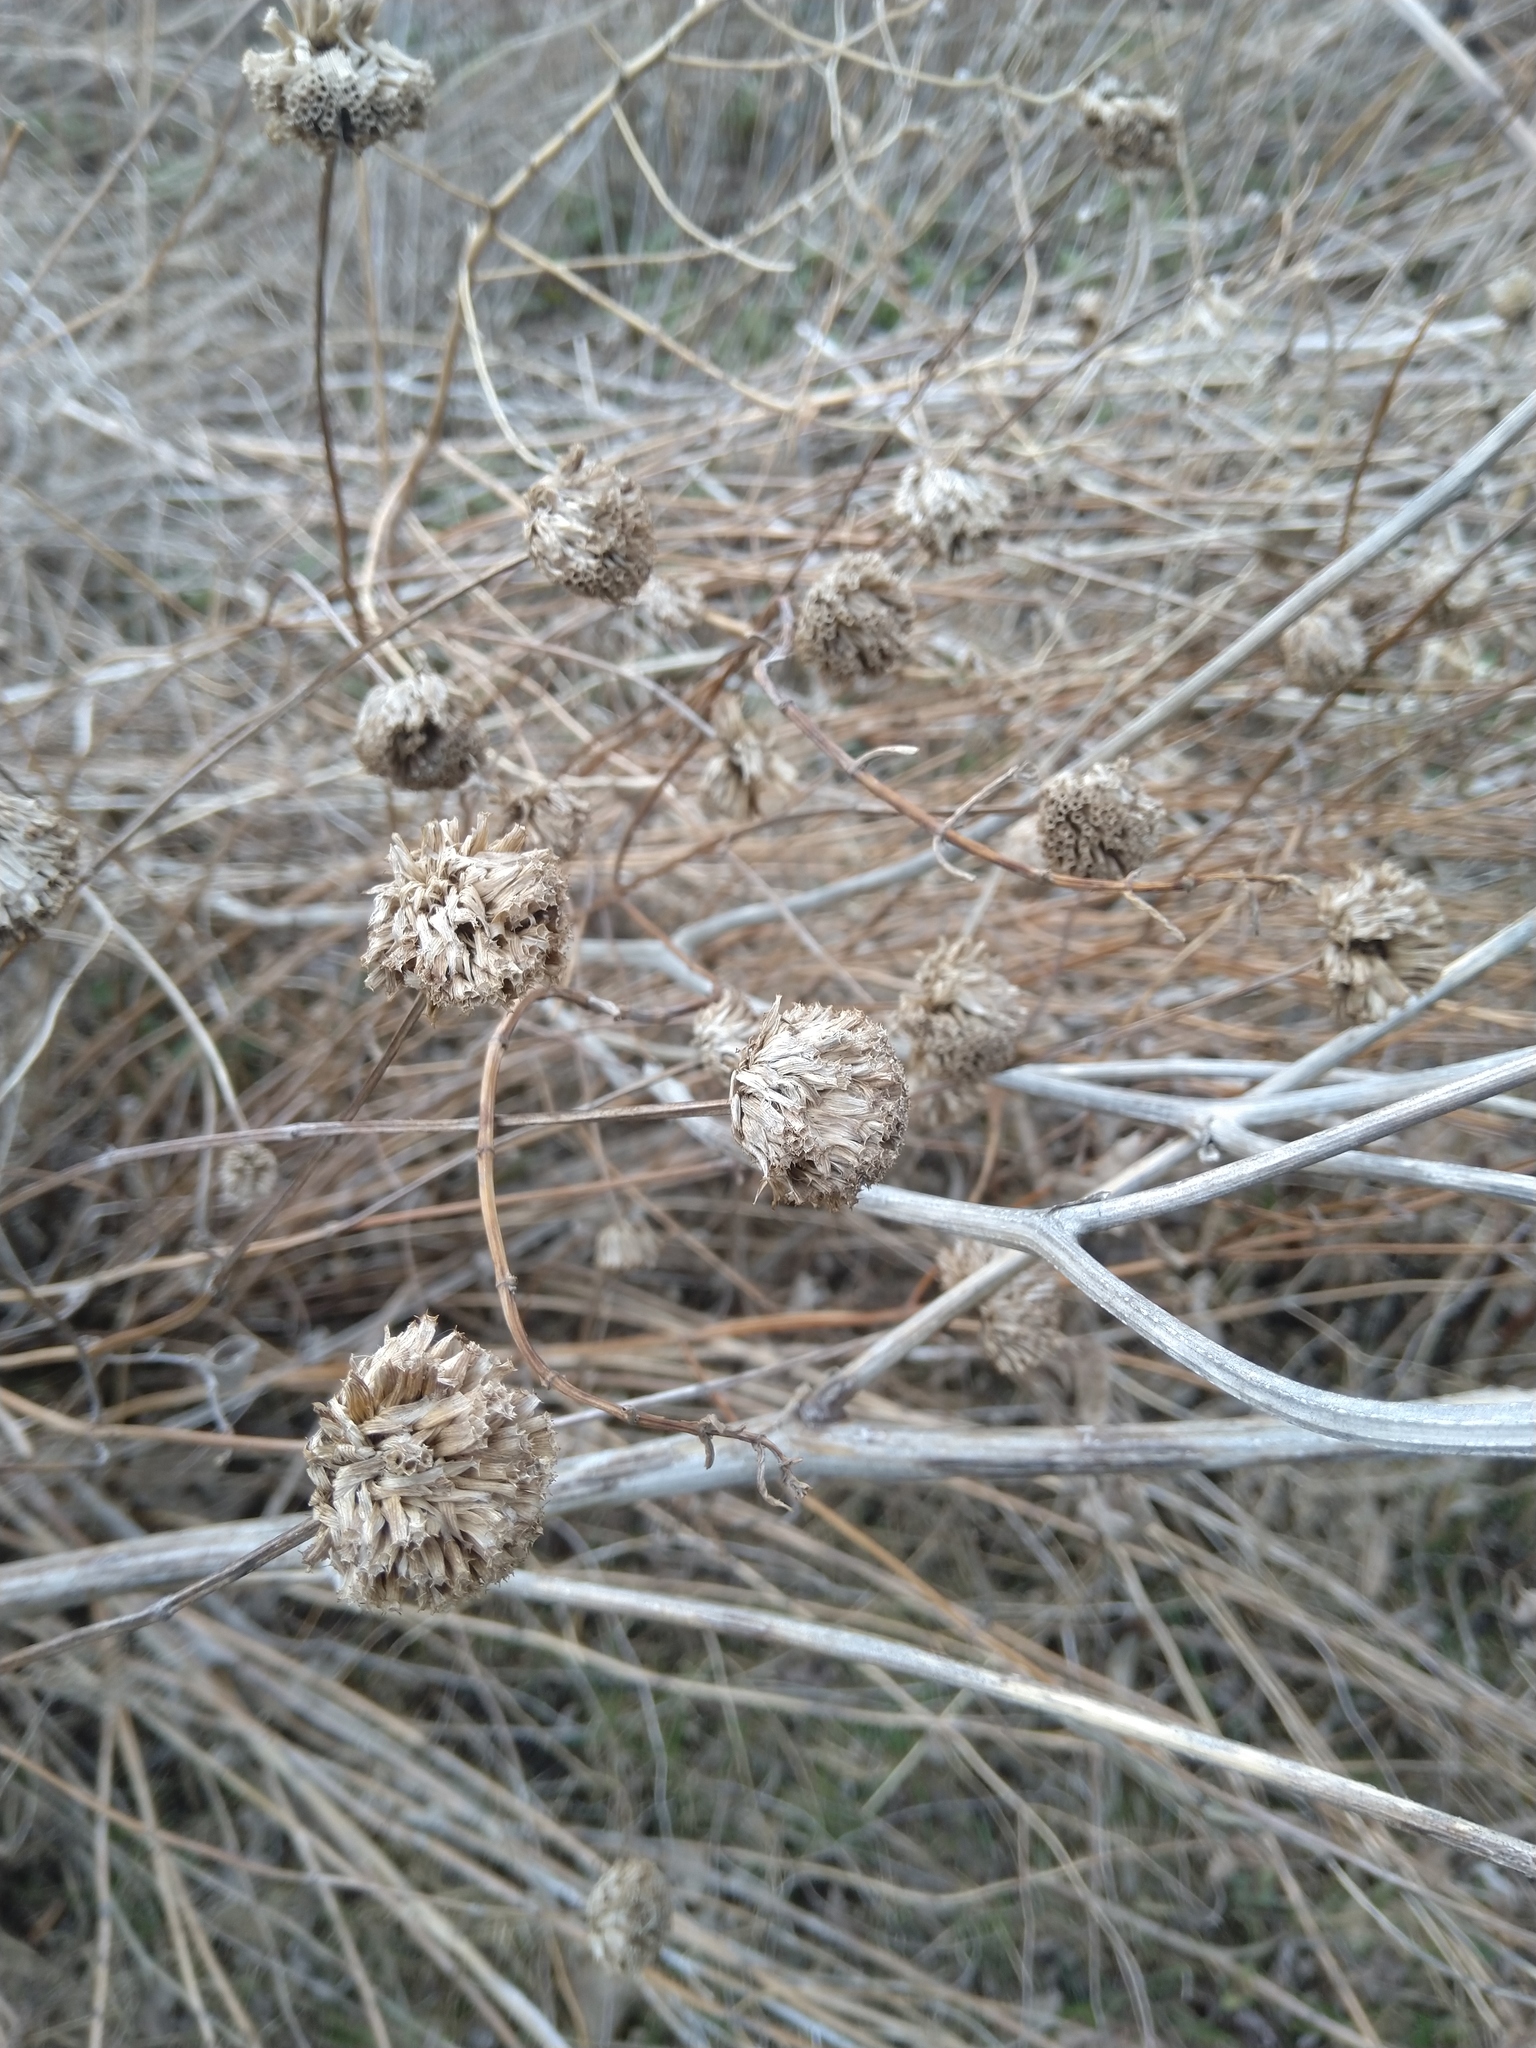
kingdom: Plantae
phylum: Tracheophyta
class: Magnoliopsida
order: Lamiales
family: Lamiaceae
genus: Monarda
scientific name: Monarda fistulosa
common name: Purple beebalm
